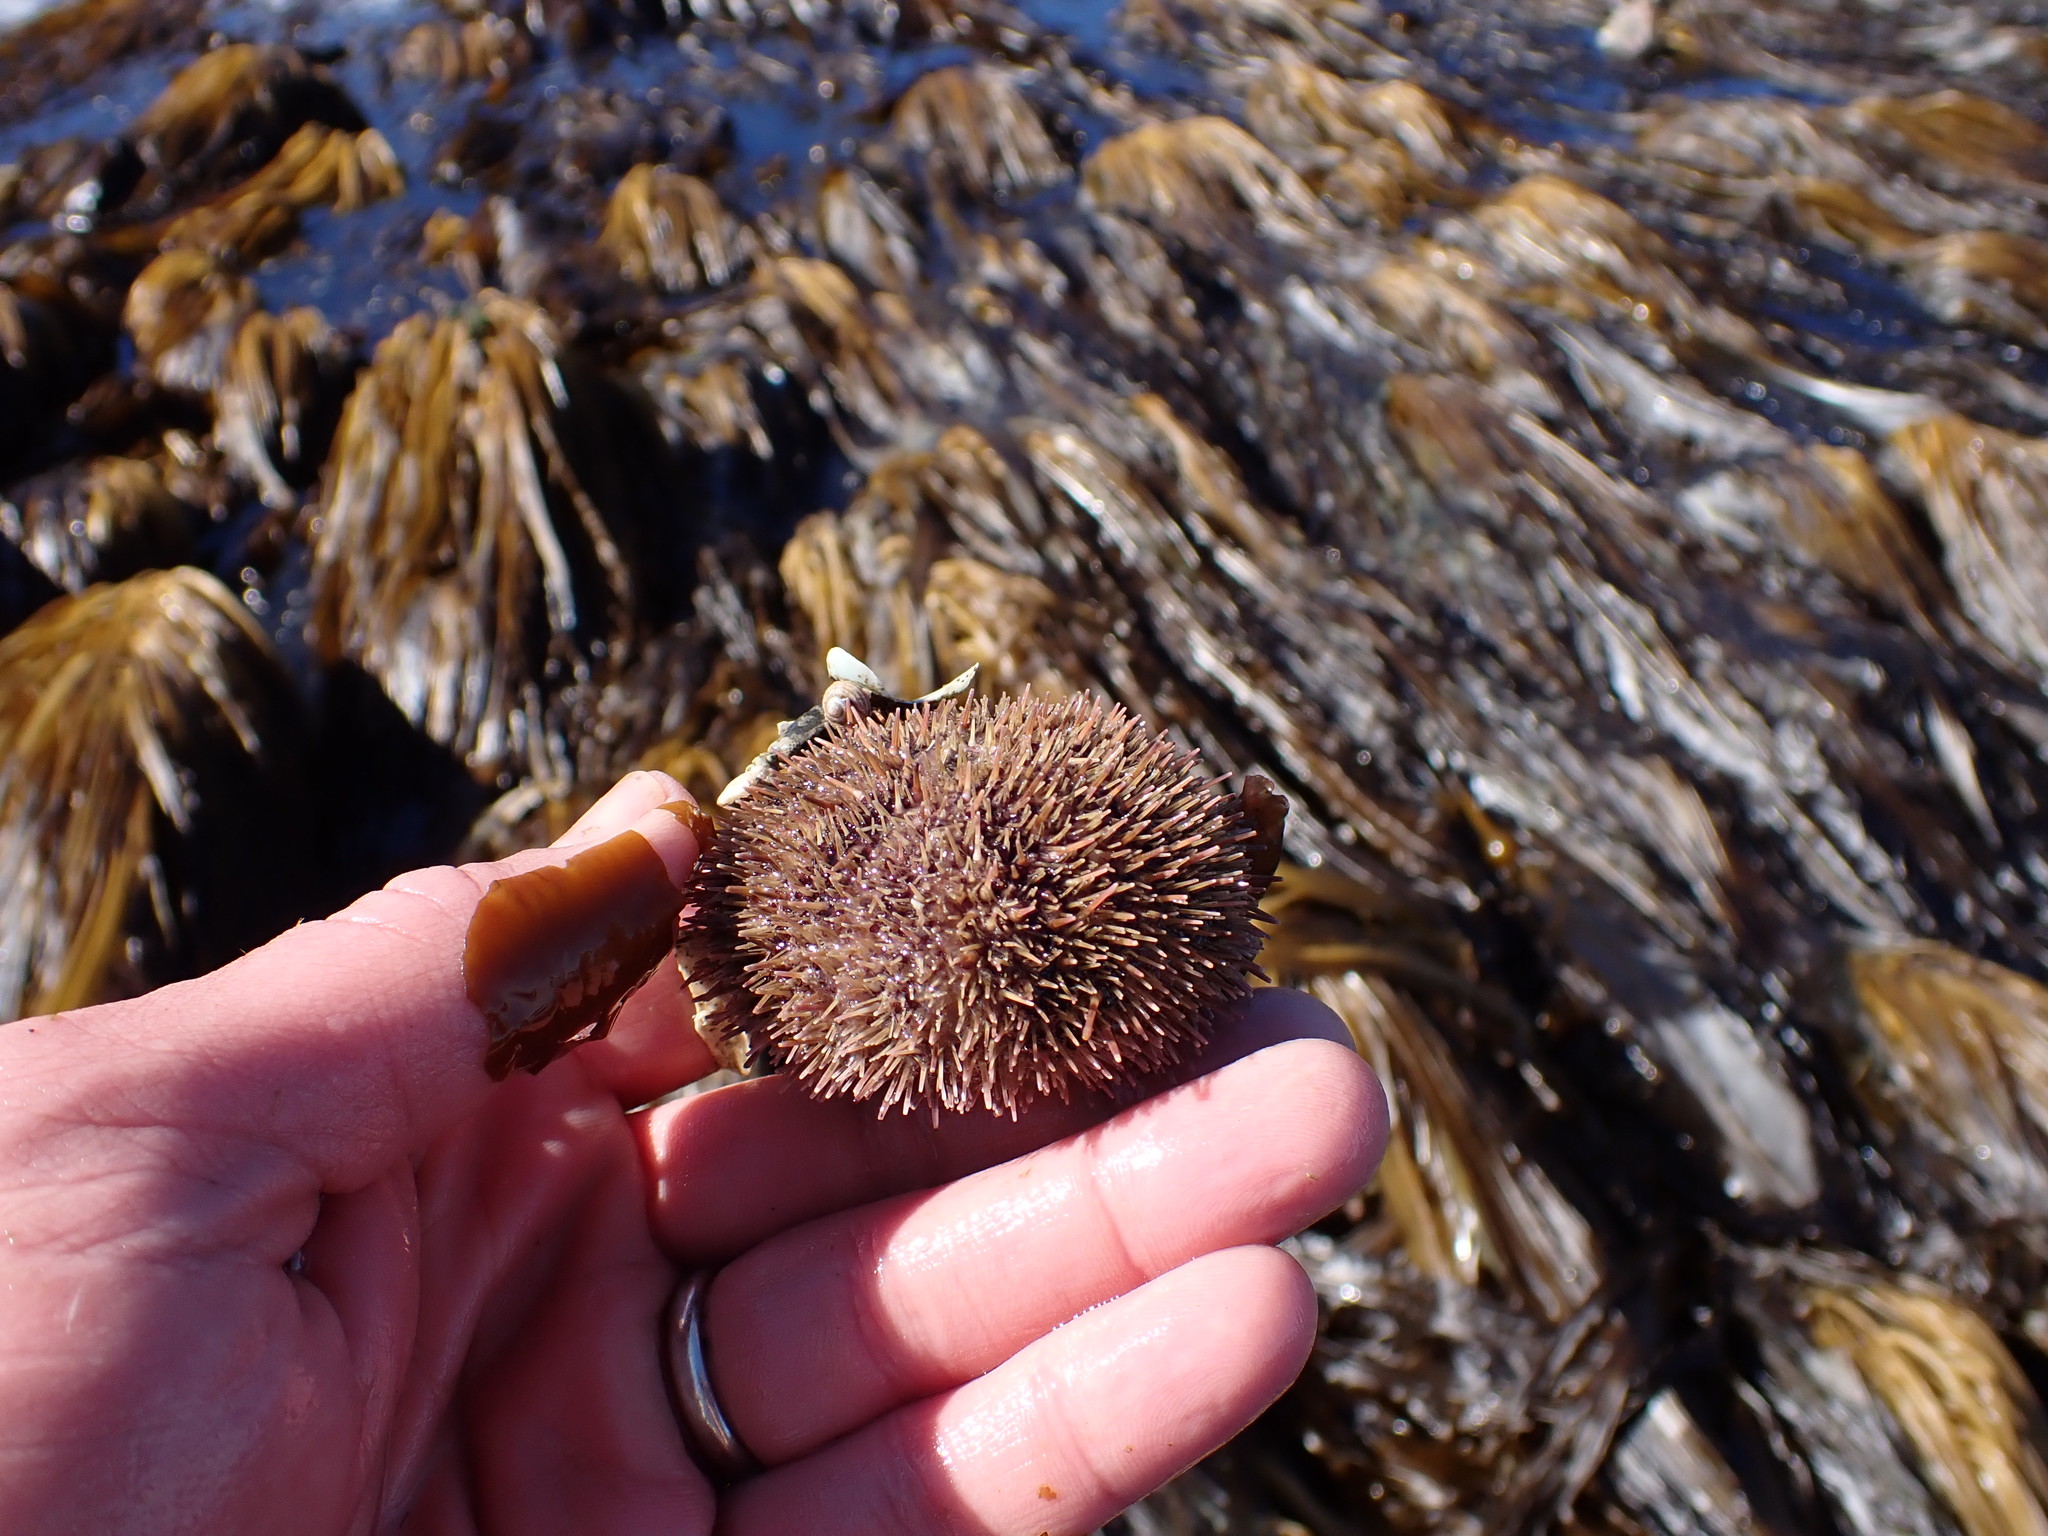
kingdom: Animalia
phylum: Echinodermata
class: Echinoidea
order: Camarodonta
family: Strongylocentrotidae
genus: Strongylocentrotus
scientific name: Strongylocentrotus droebachiensis
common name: Northern sea urchin
